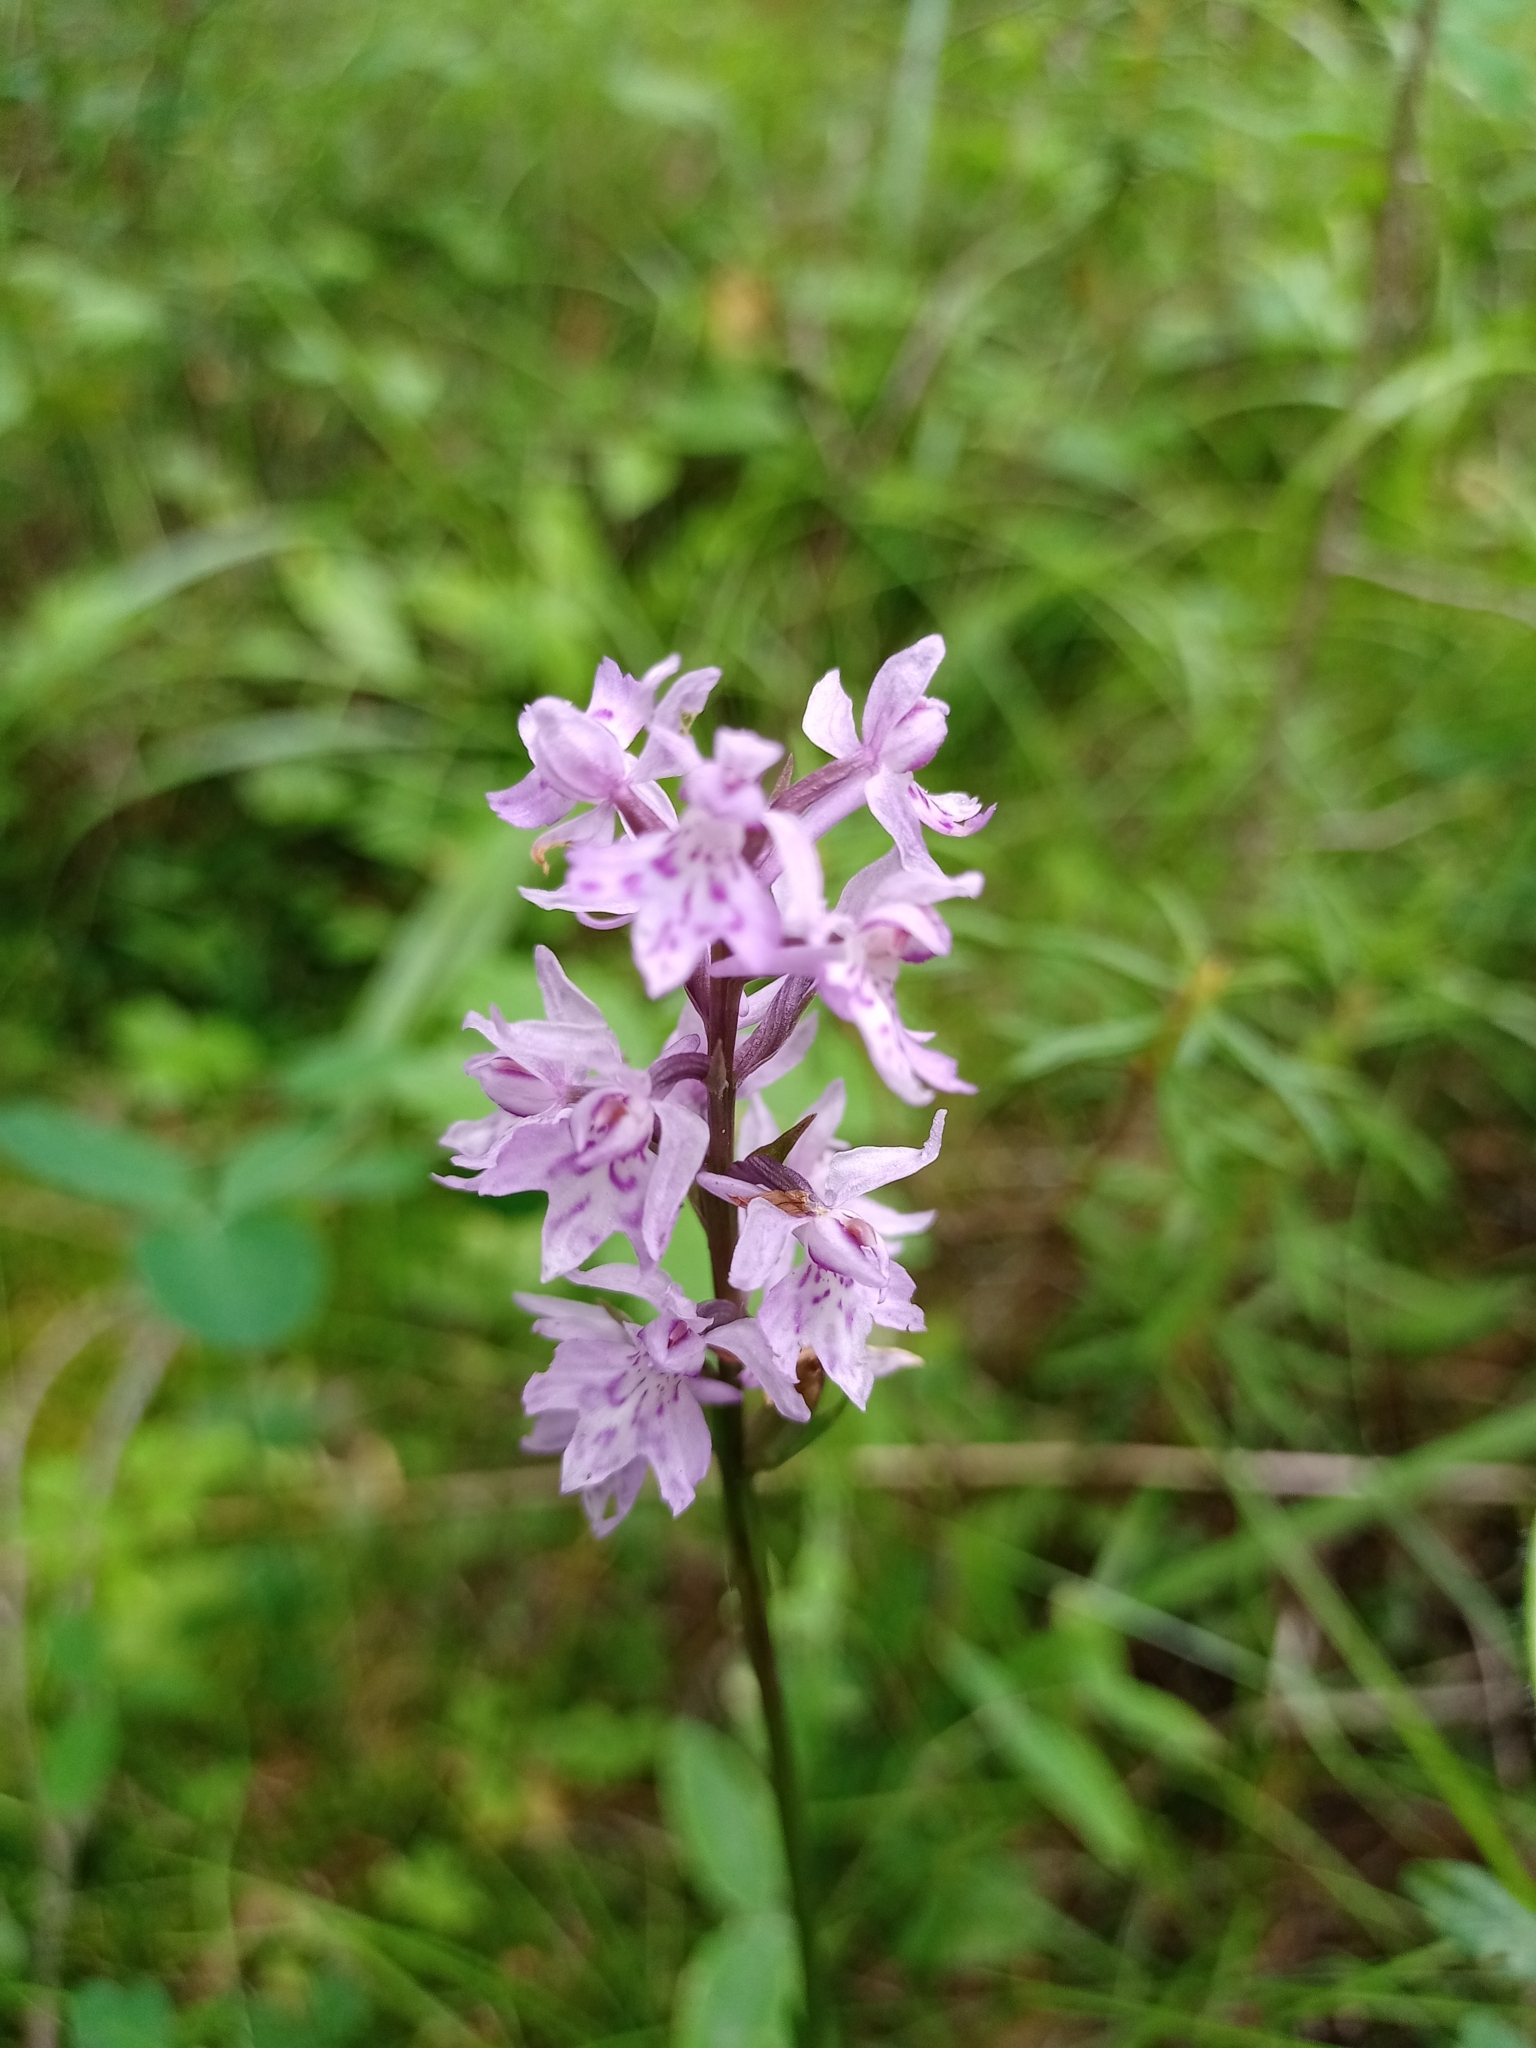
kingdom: Plantae
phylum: Tracheophyta
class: Liliopsida
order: Asparagales
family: Orchidaceae
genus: Dactylorhiza
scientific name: Dactylorhiza maculata
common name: Heath spotted-orchid
